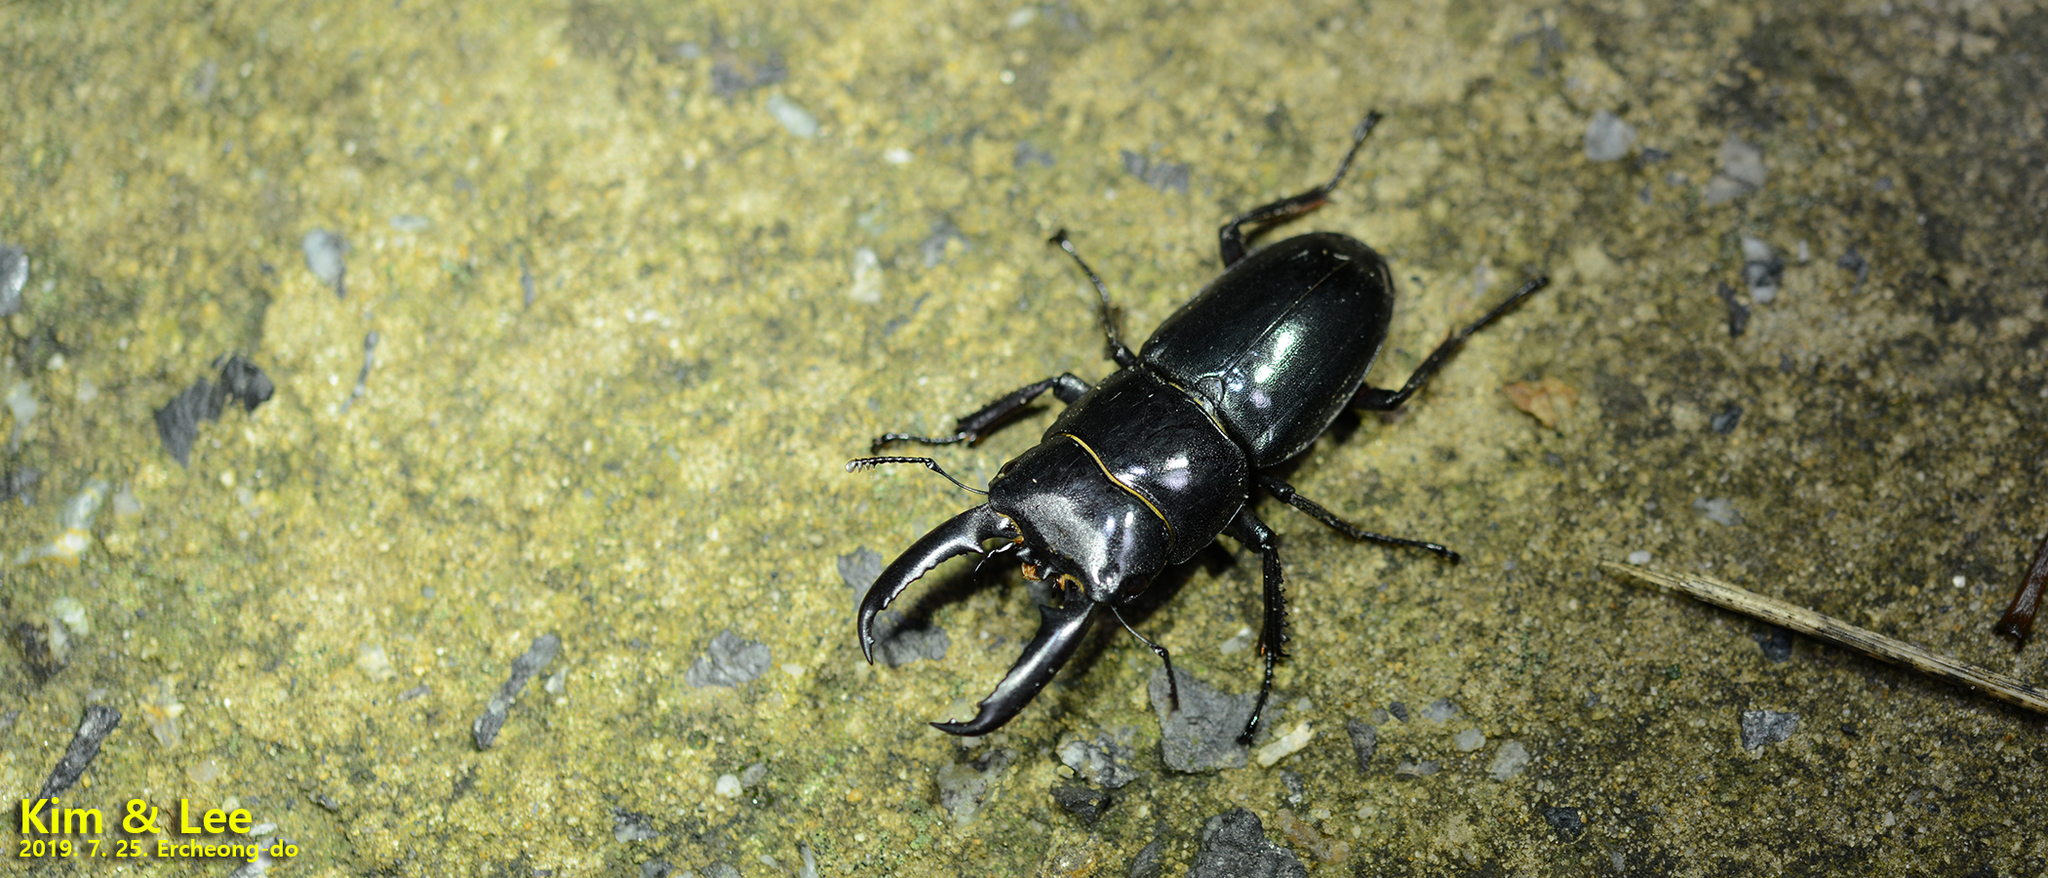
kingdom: Animalia
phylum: Arthropoda
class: Insecta
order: Coleoptera
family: Lucanidae
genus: Serrognathus
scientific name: Serrognathus titanus
